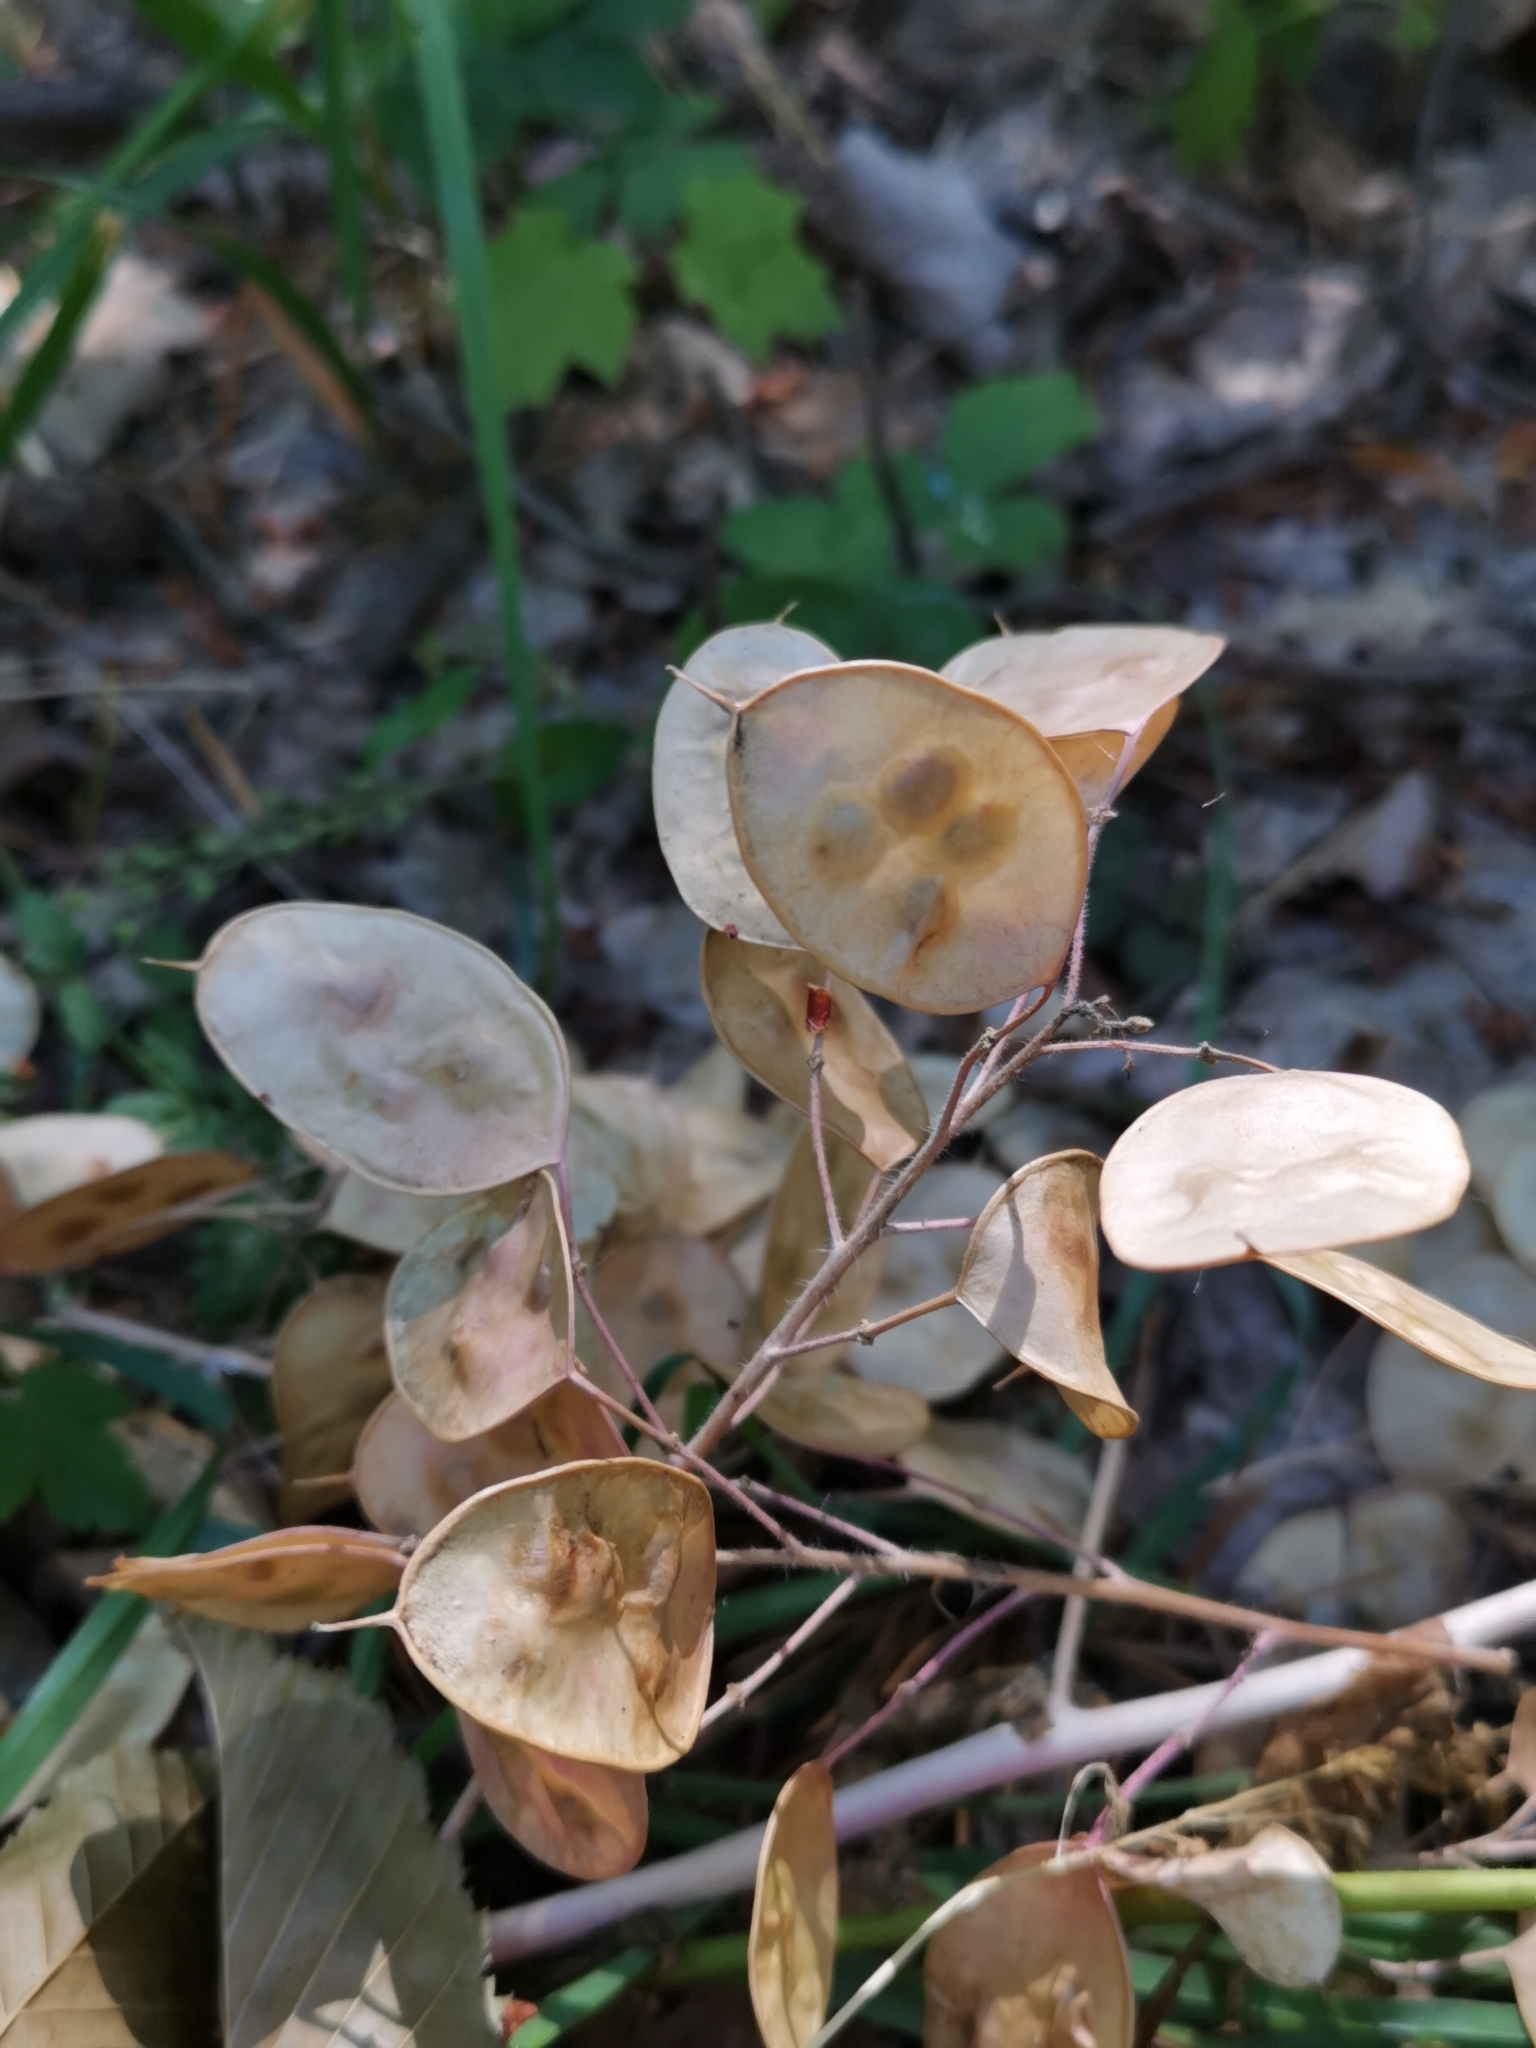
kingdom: Plantae
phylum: Tracheophyta
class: Magnoliopsida
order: Brassicales
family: Brassicaceae
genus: Lunaria
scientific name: Lunaria annua
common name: Honesty
